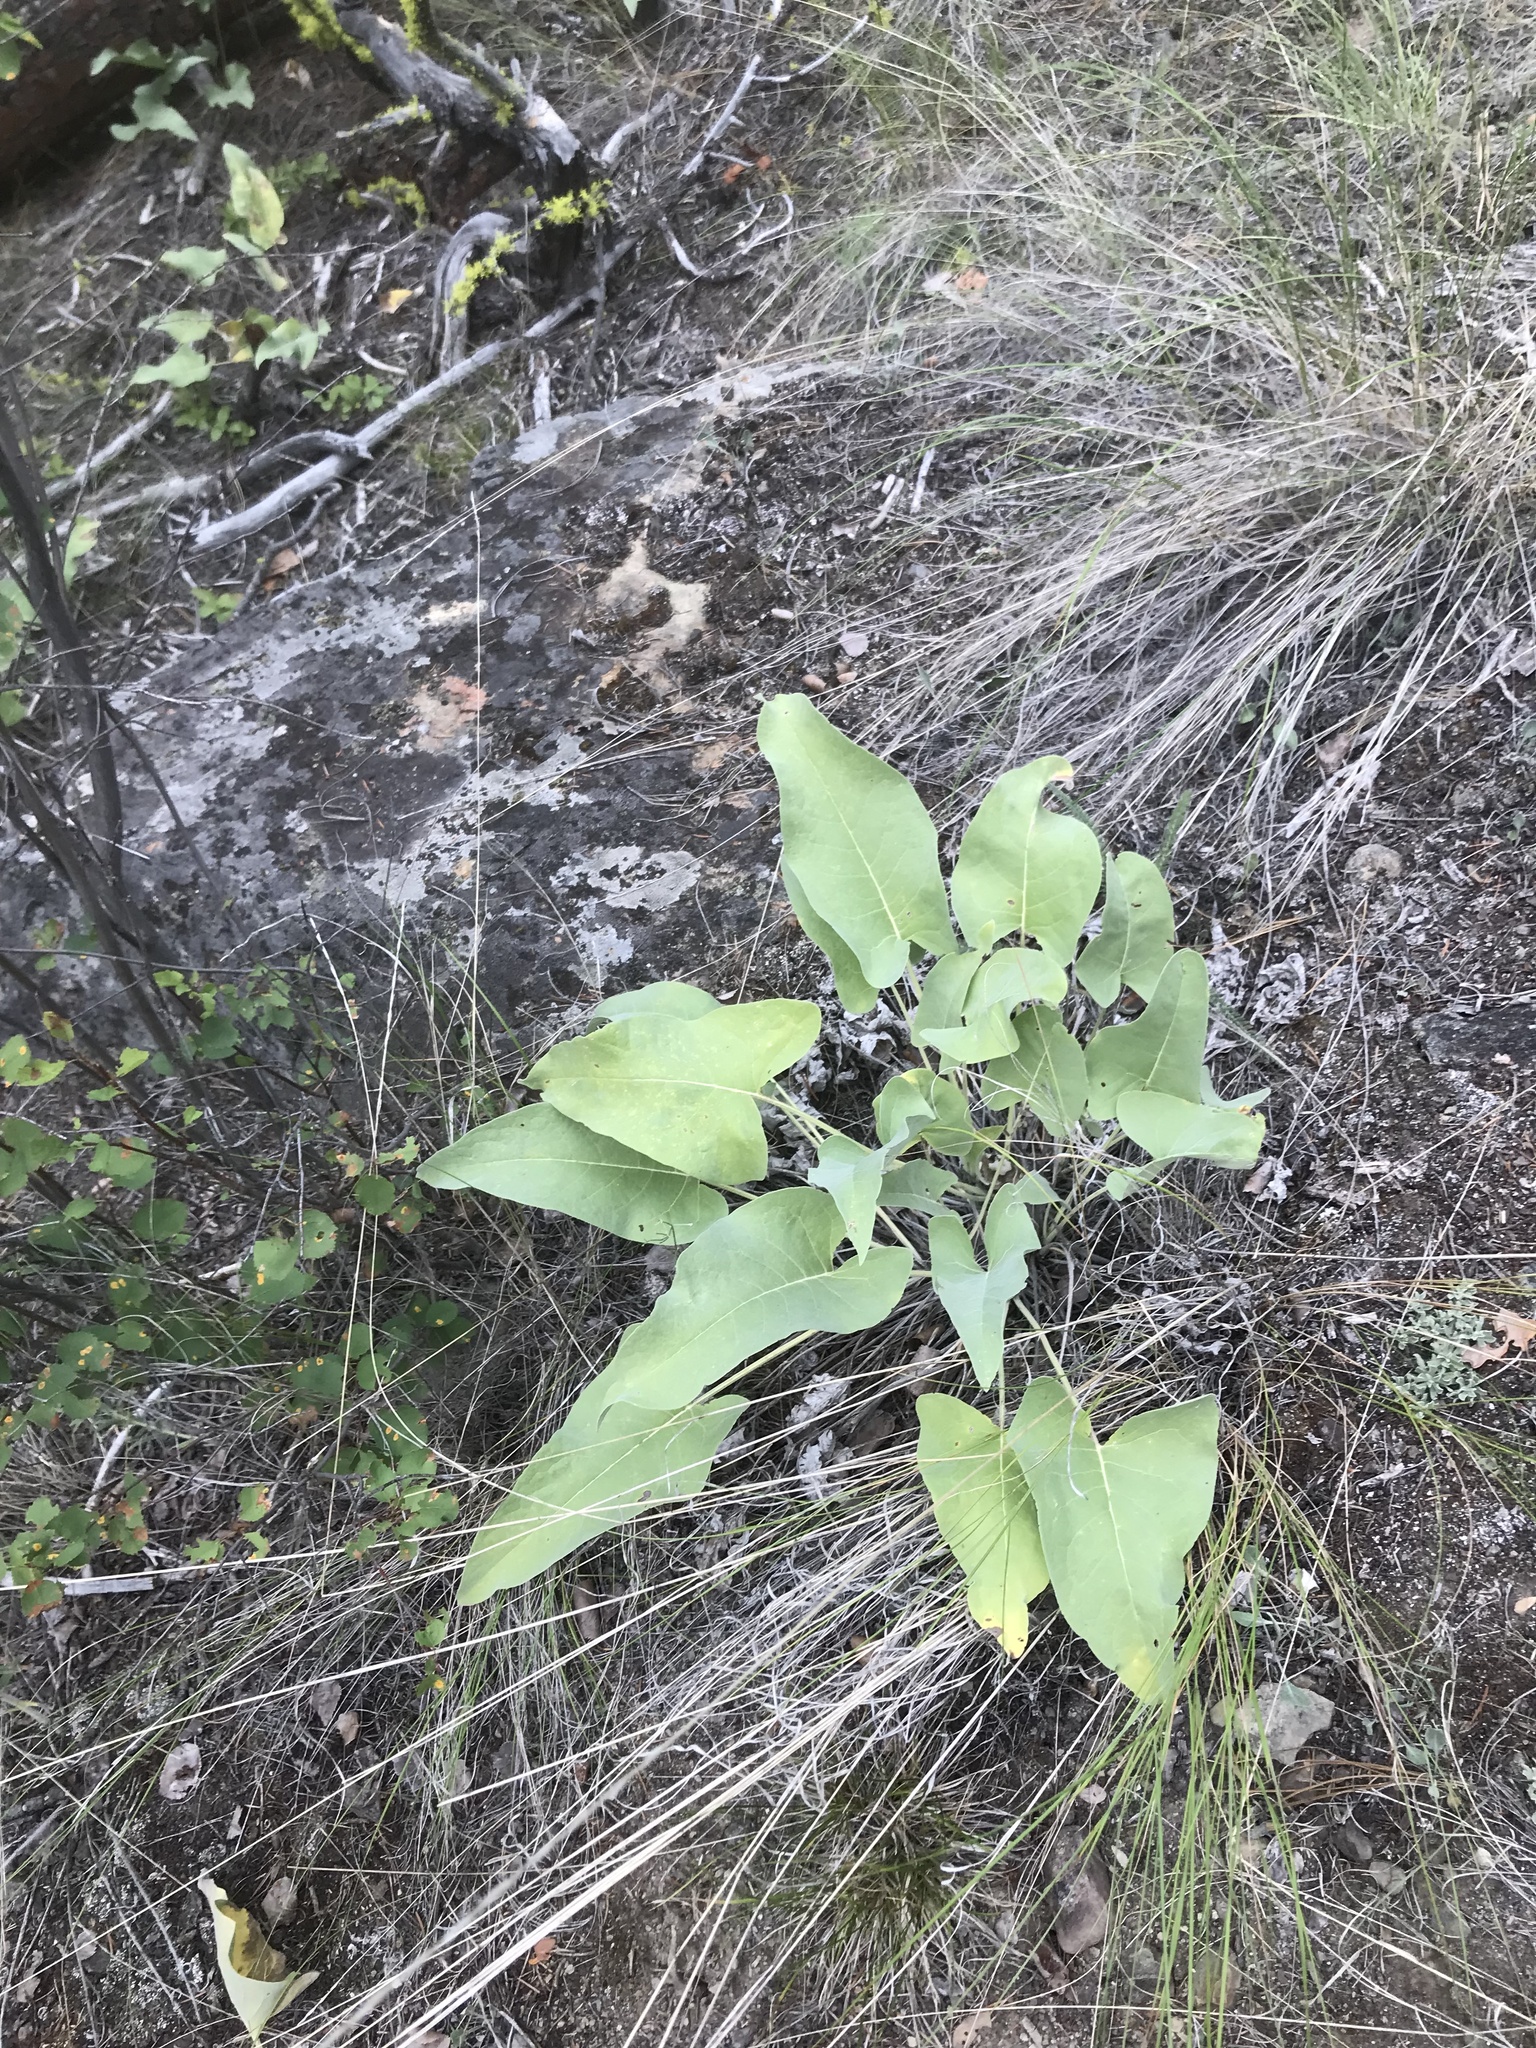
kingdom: Plantae
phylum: Tracheophyta
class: Magnoliopsida
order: Asterales
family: Asteraceae
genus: Wyethia
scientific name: Wyethia sagittata
